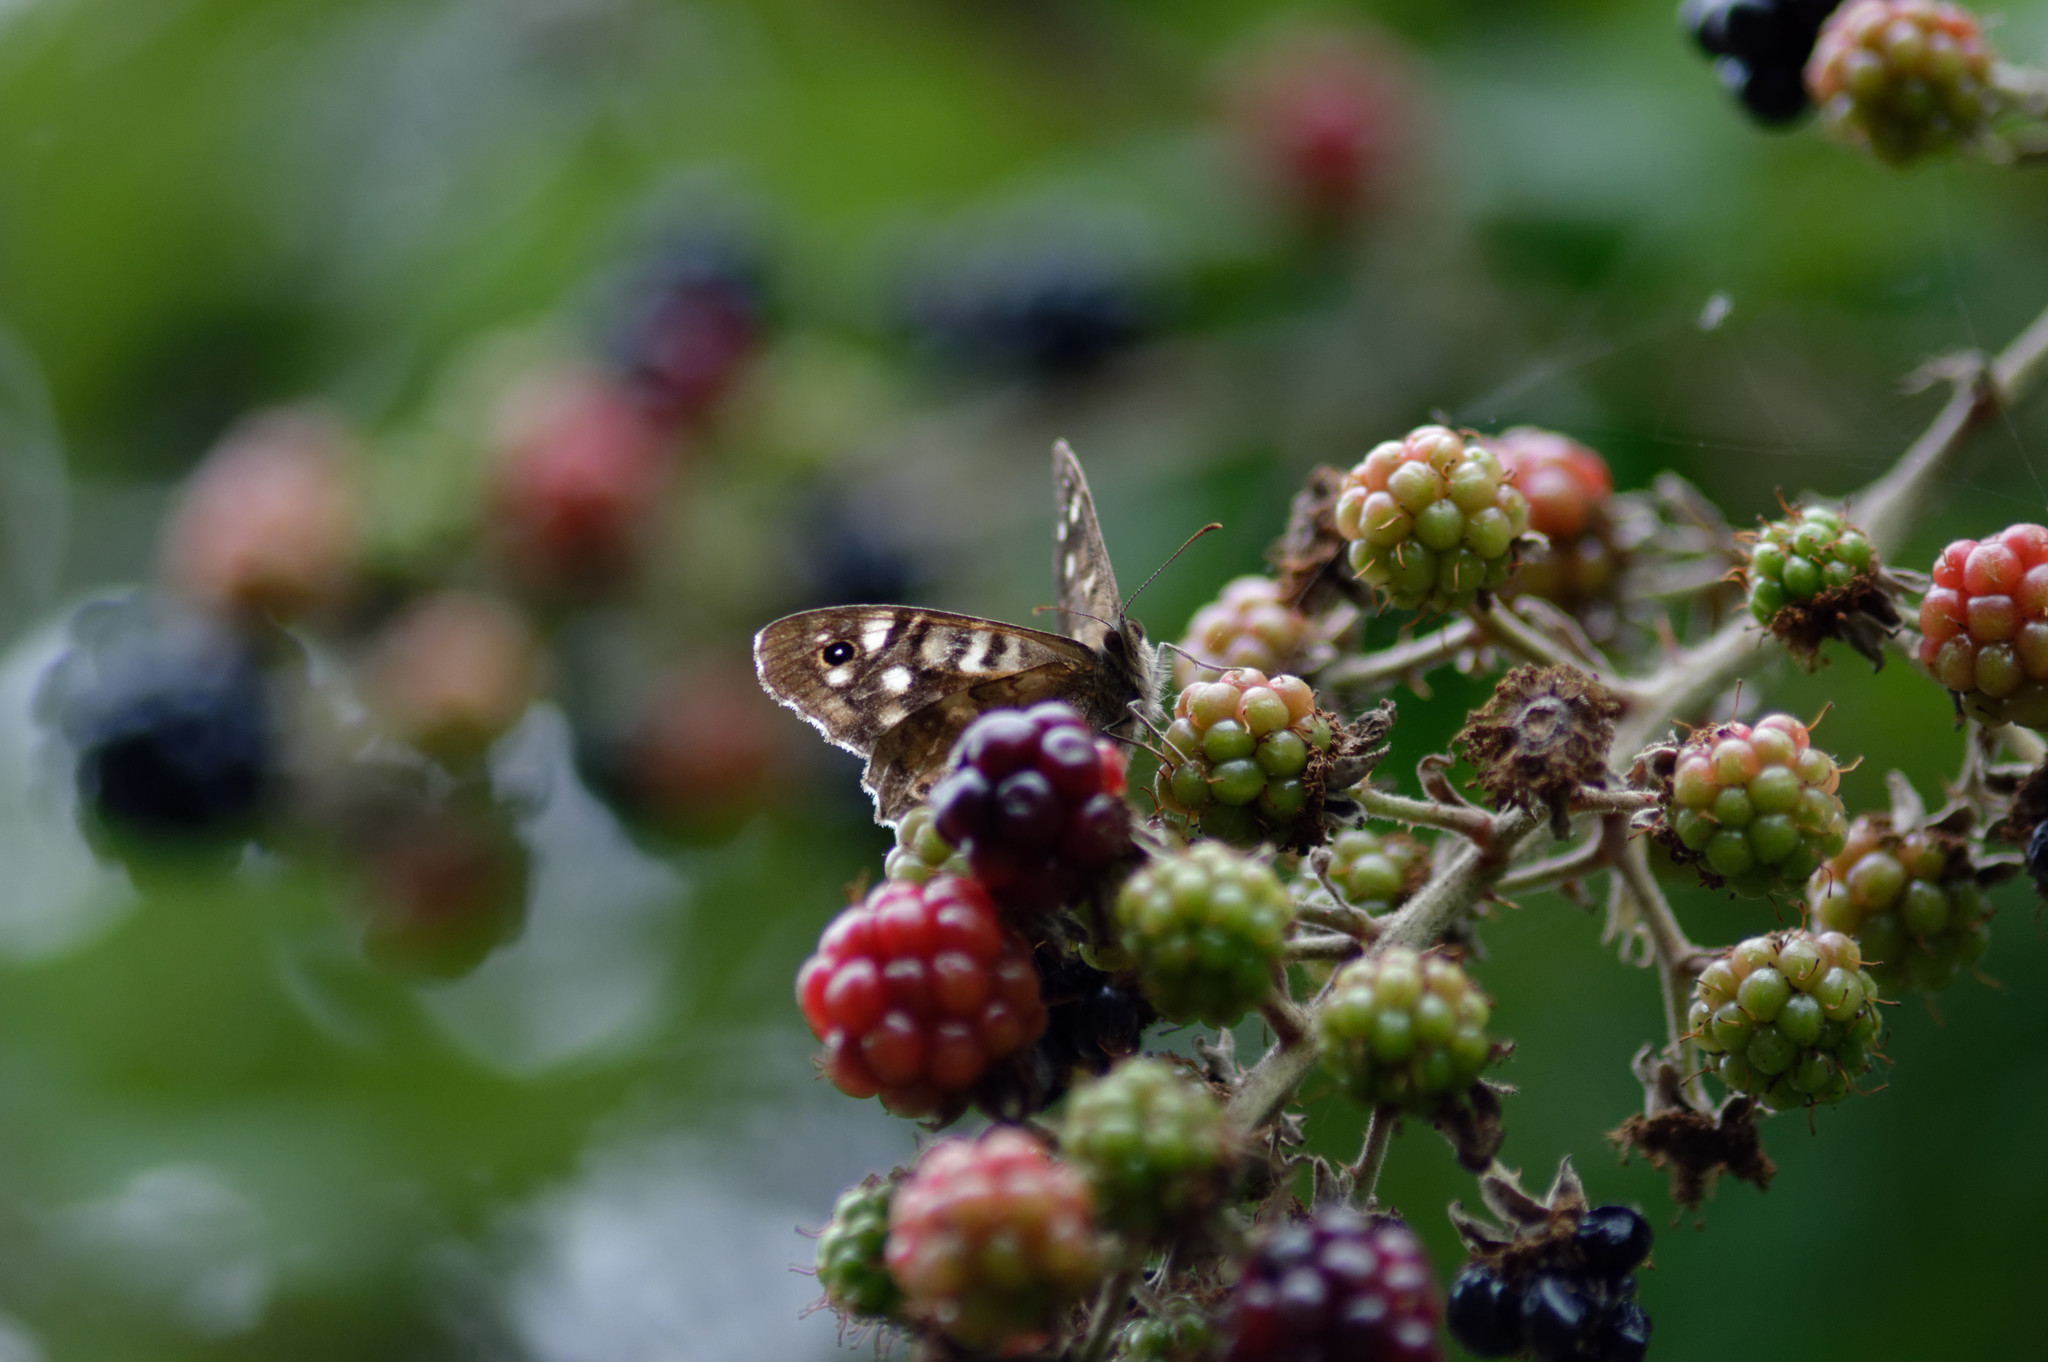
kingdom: Animalia
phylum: Arthropoda
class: Insecta
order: Lepidoptera
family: Nymphalidae
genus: Pararge
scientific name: Pararge aegeria
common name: Speckled wood
